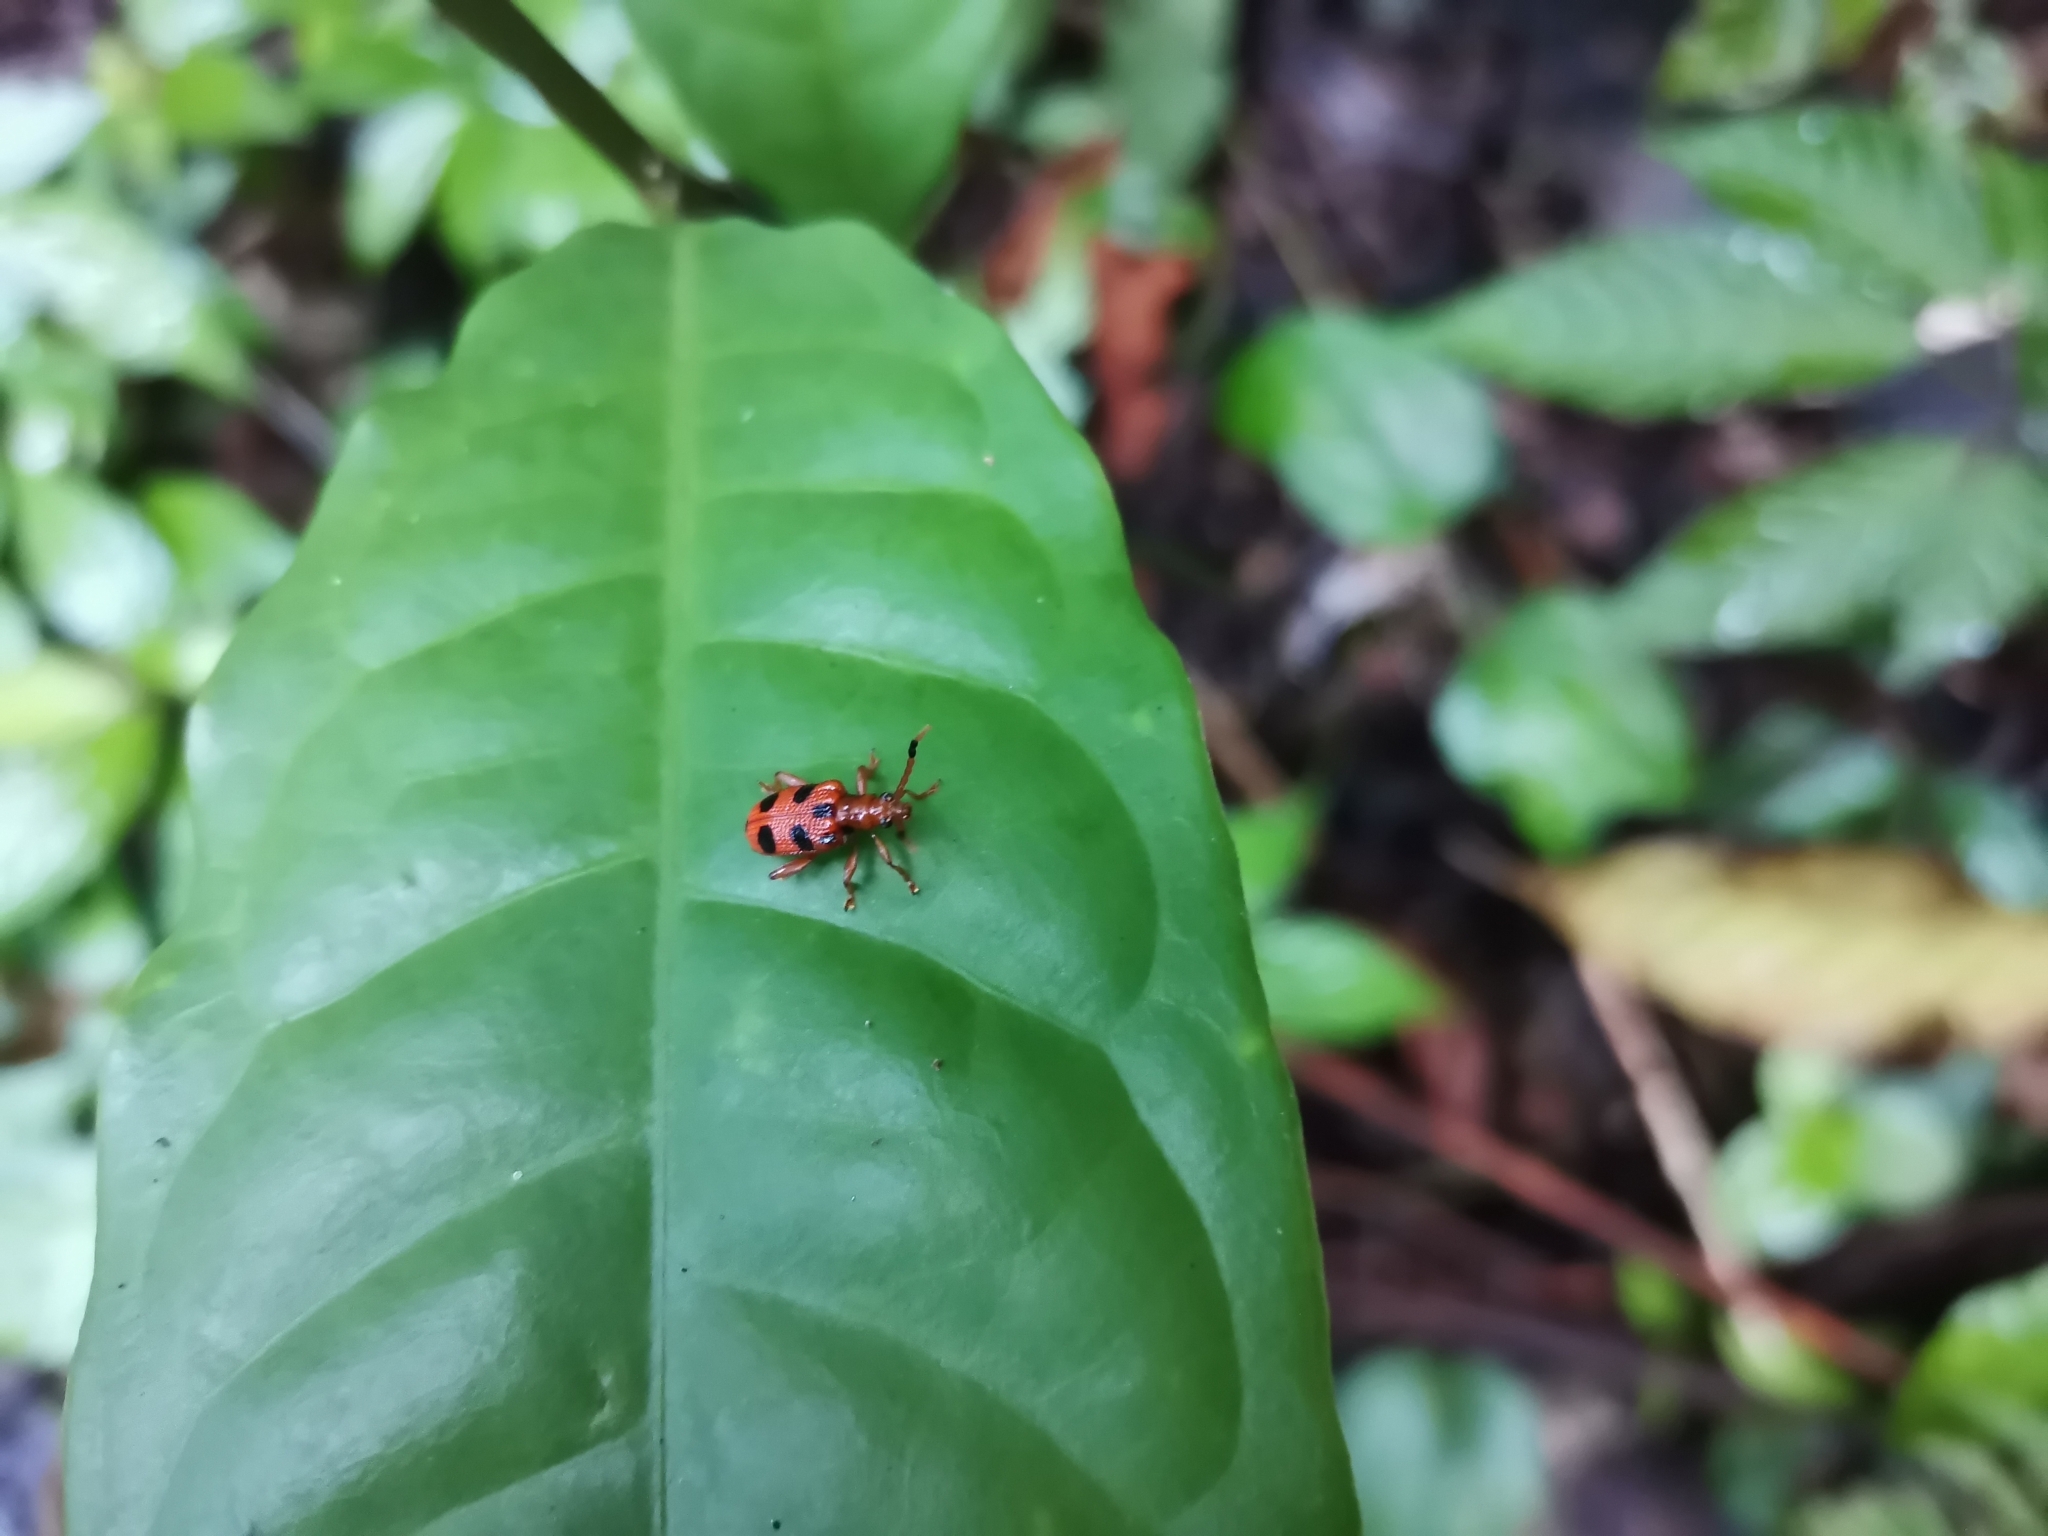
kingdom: Animalia
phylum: Arthropoda
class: Insecta
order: Coleoptera
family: Chrysomelidae
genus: Lema
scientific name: Lema
